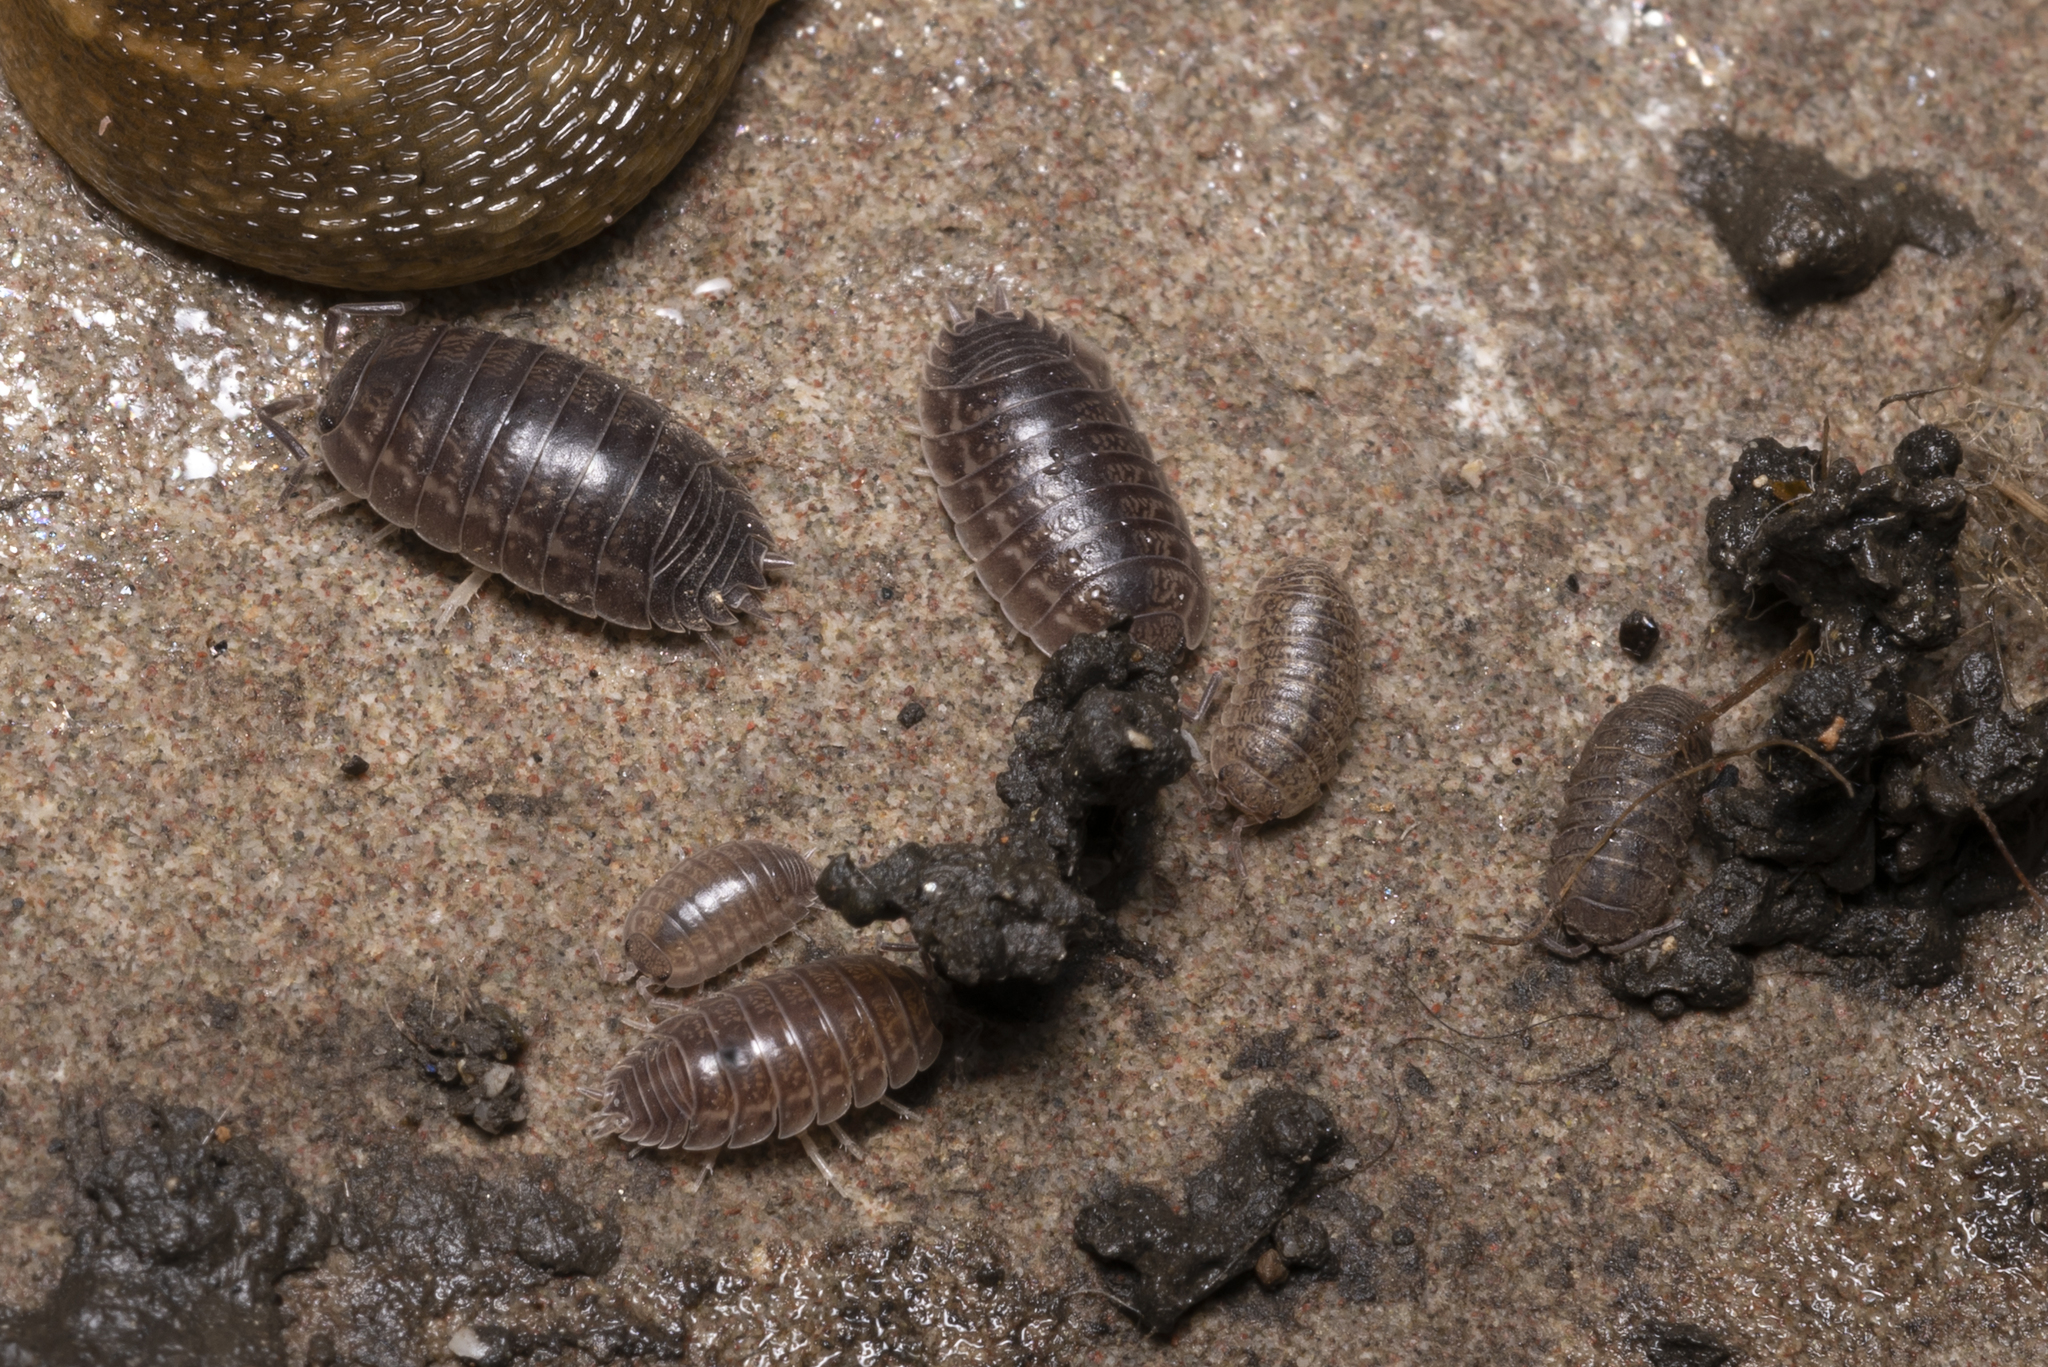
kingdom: Animalia
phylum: Arthropoda
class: Malacostraca
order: Isopoda
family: Porcellionidae
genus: Leptotrichus
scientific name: Leptotrichus
